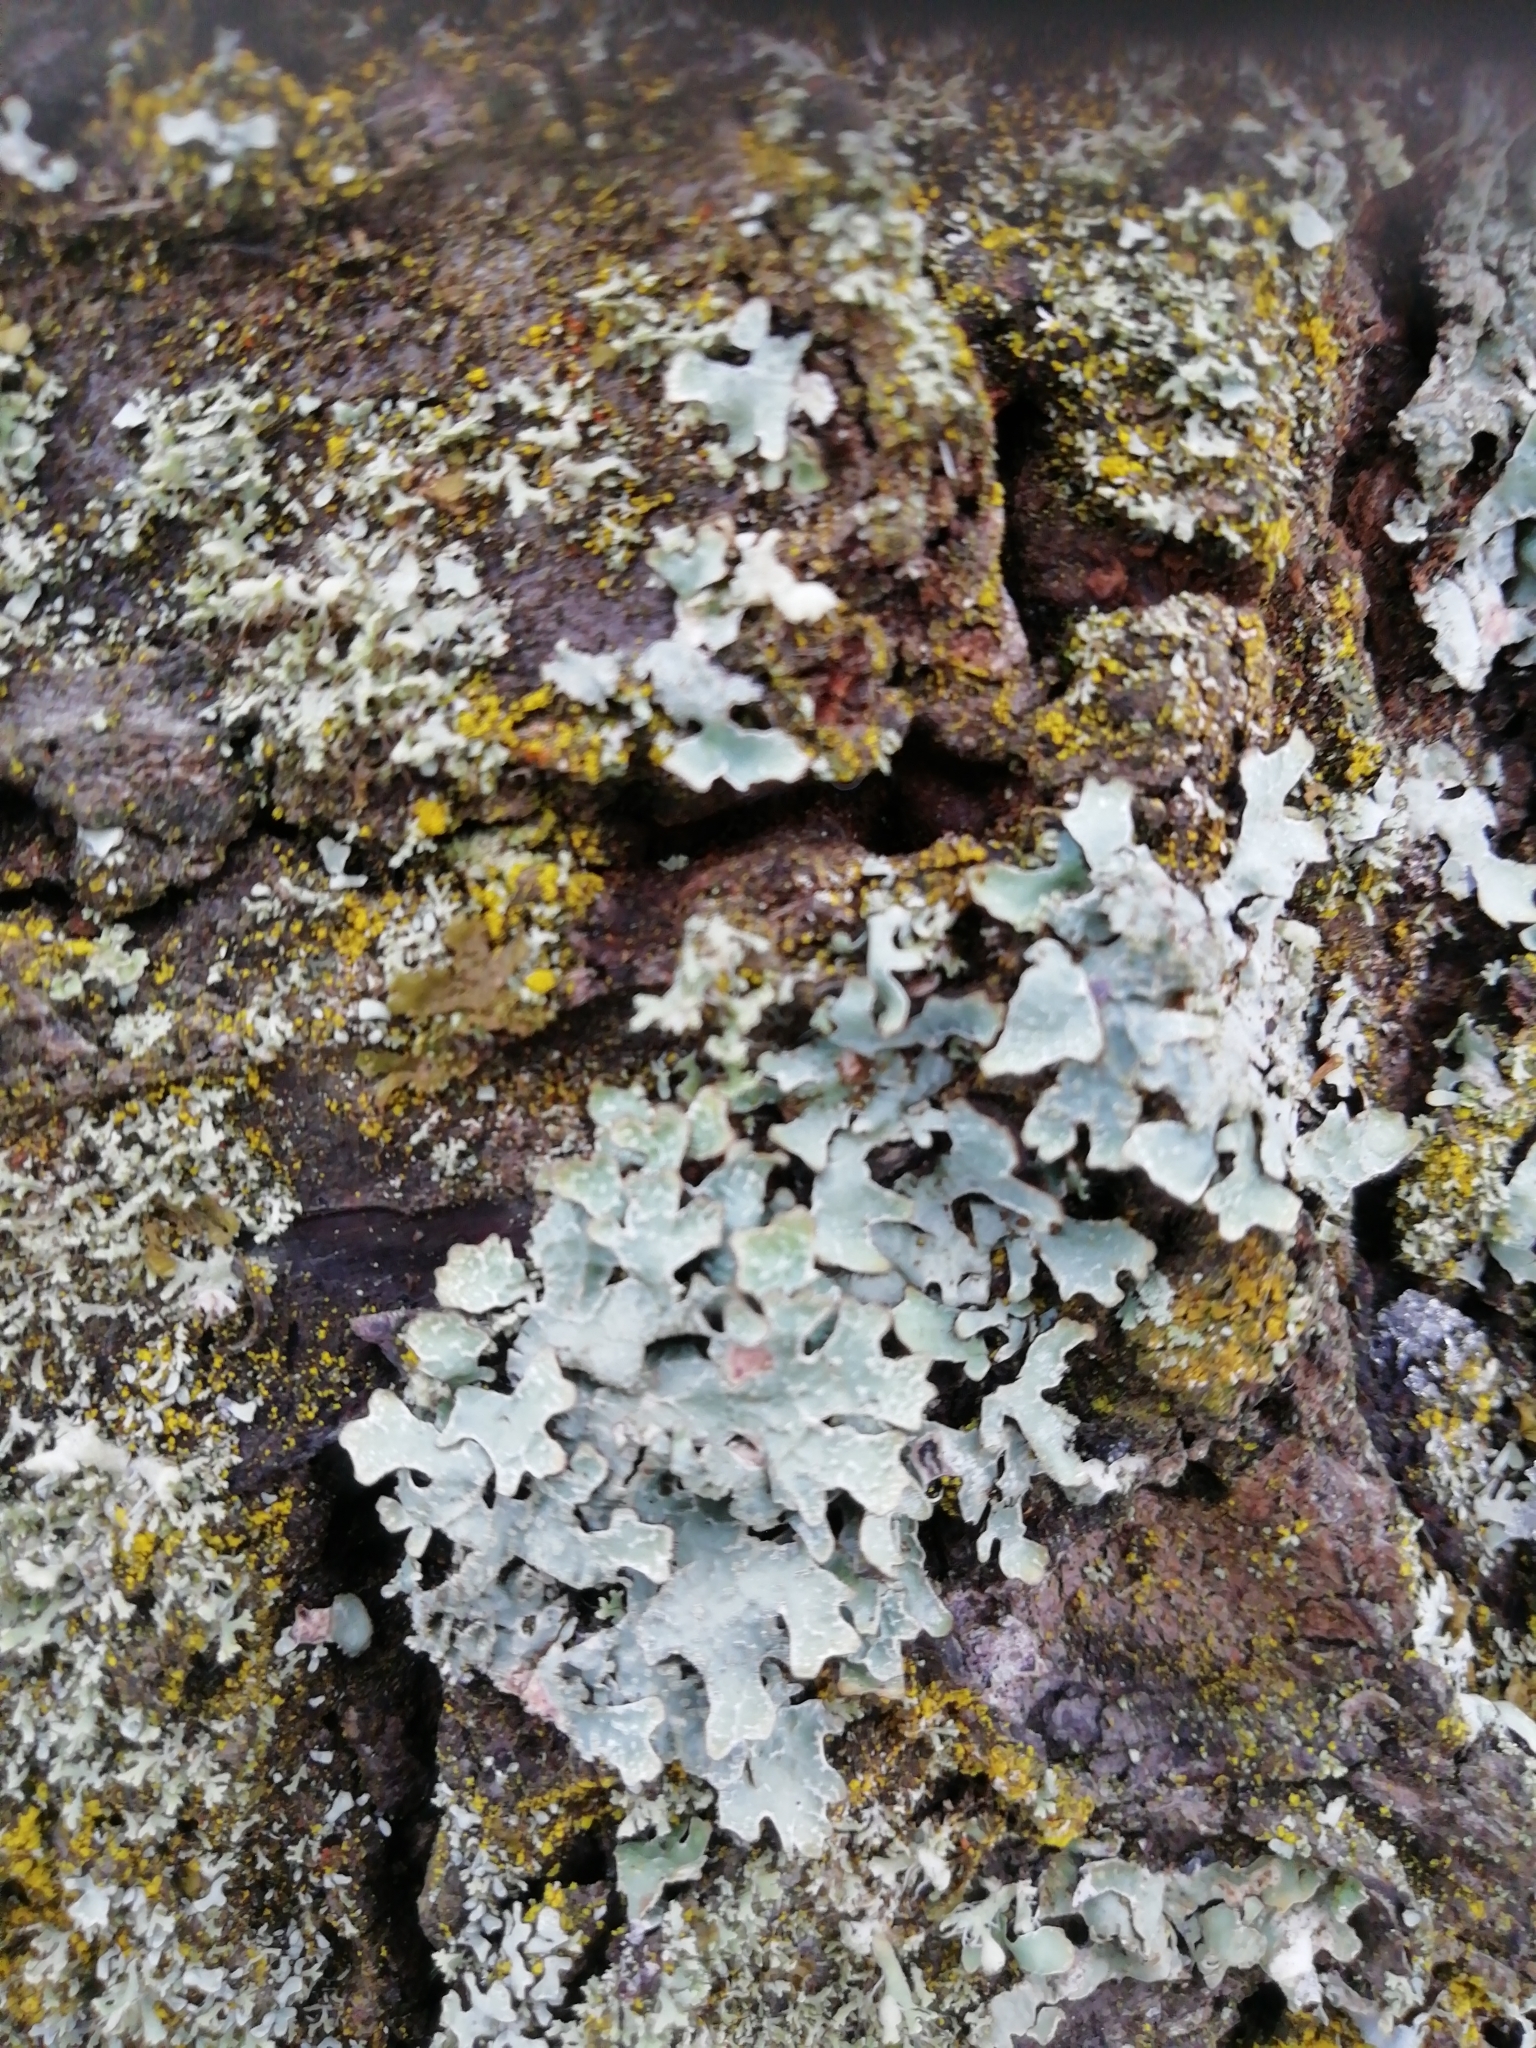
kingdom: Fungi
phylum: Ascomycota
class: Lecanoromycetes
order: Lecanorales
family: Parmeliaceae
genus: Parmelia
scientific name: Parmelia sulcata
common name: Netted shield lichen
